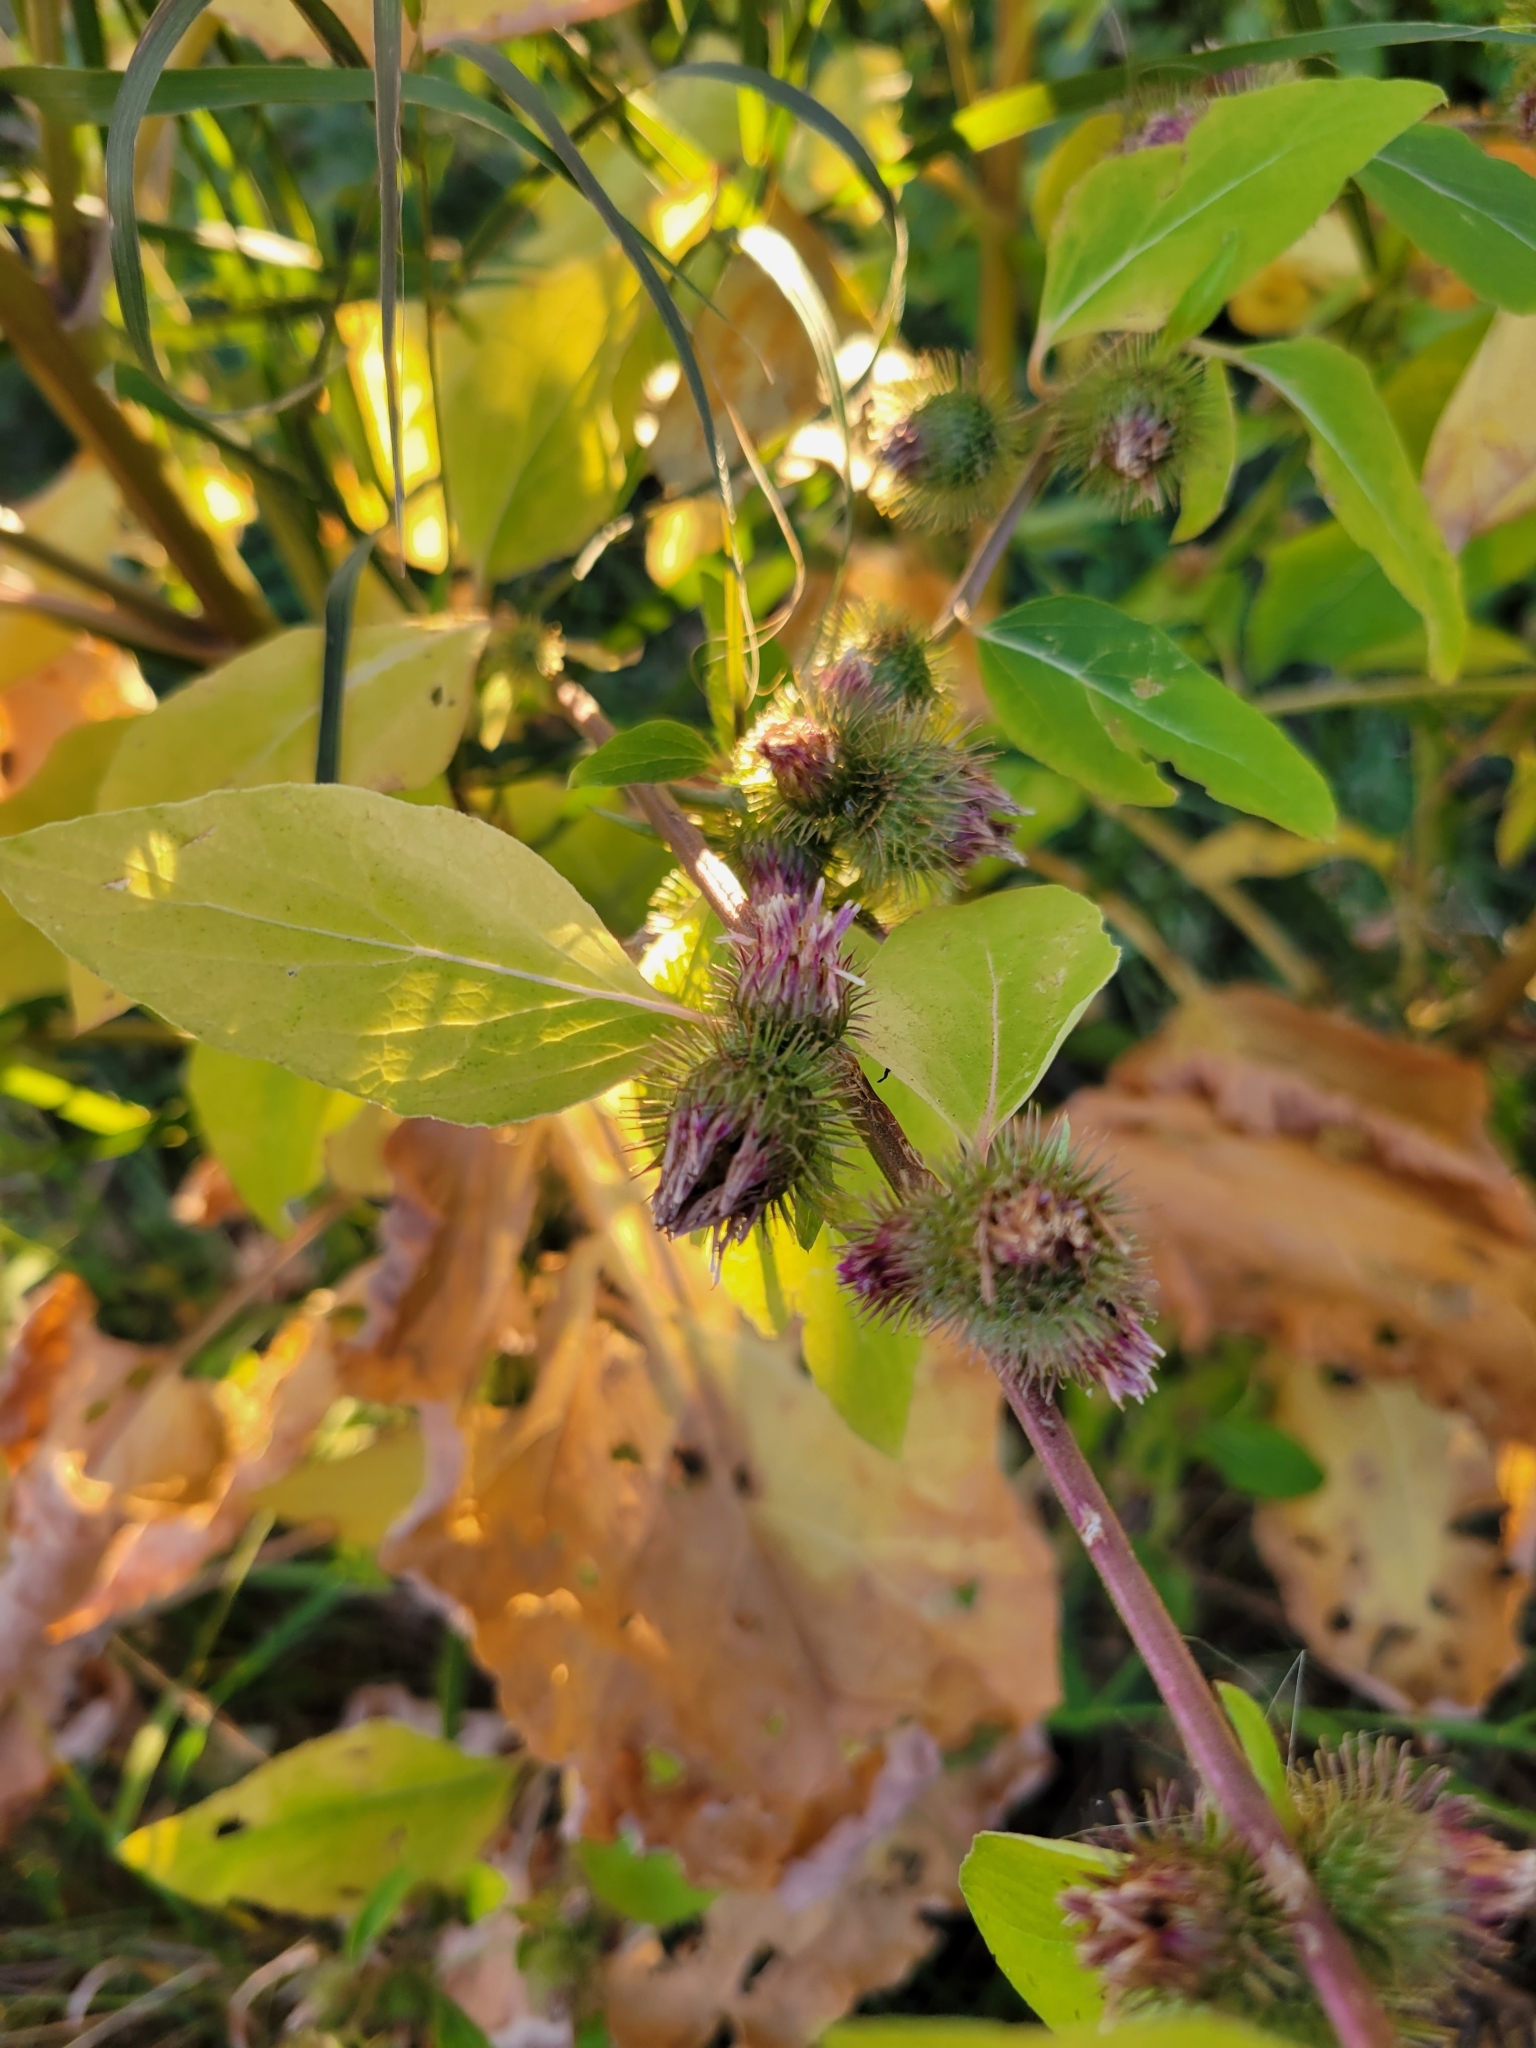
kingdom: Plantae
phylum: Tracheophyta
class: Magnoliopsida
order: Asterales
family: Asteraceae
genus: Arctium
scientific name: Arctium minus
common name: Lesser burdock
